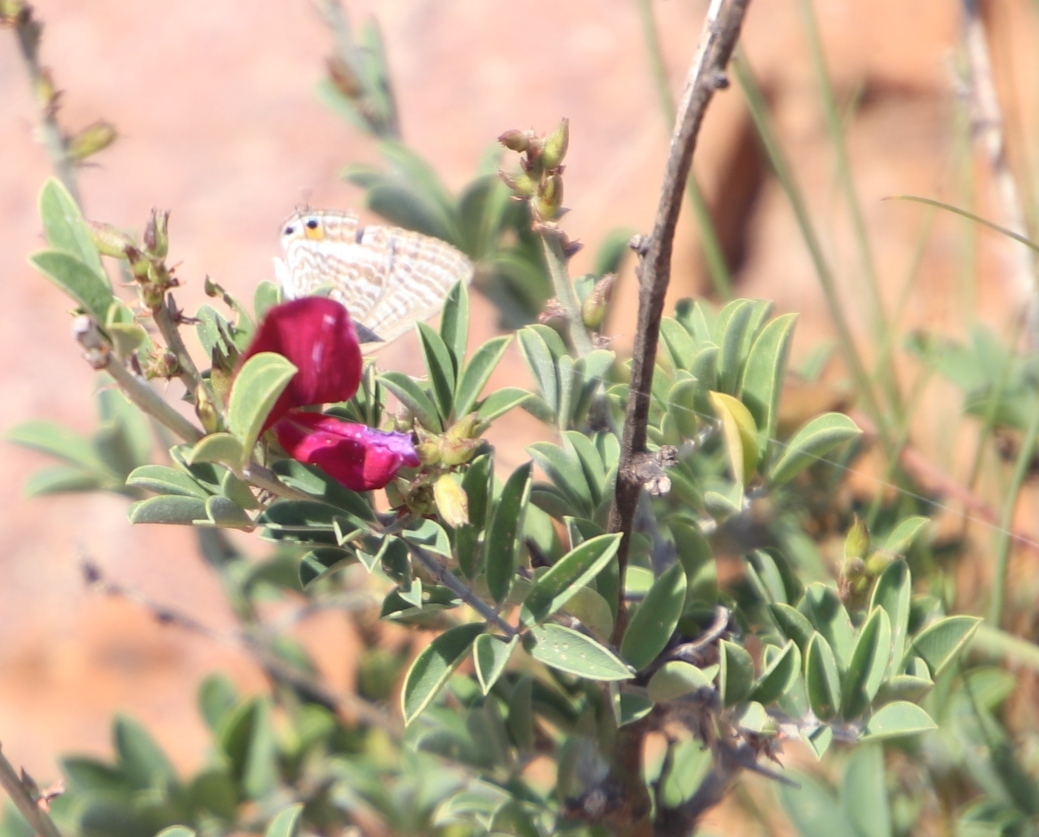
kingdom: Plantae
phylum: Tracheophyta
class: Magnoliopsida
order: Fabales
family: Fabaceae
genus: Tephrosia
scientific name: Tephrosia gobensis
